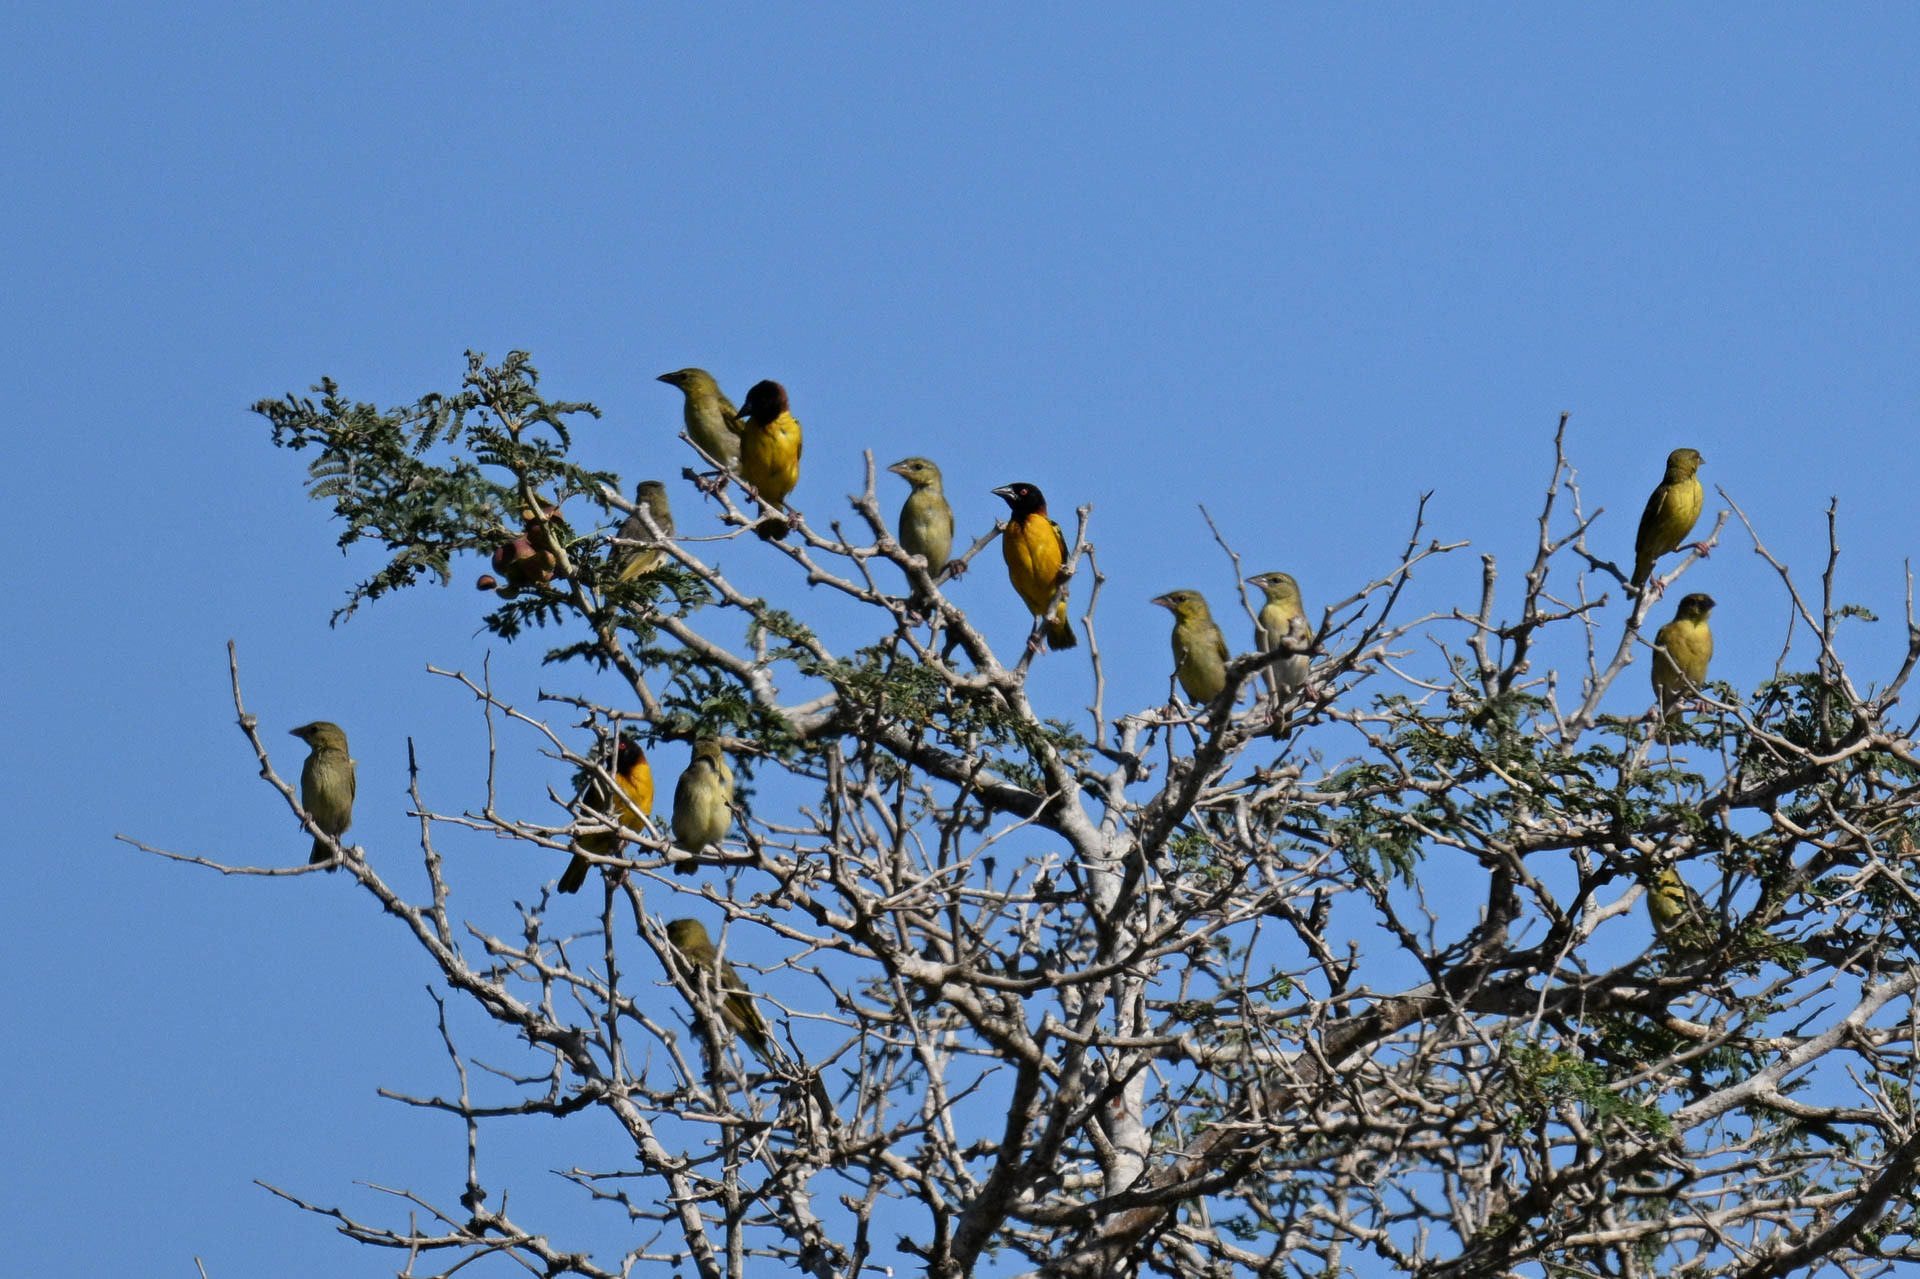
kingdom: Animalia
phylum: Chordata
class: Aves
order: Passeriformes
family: Ploceidae
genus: Ploceus
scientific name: Ploceus cucullatus
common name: Village weaver
